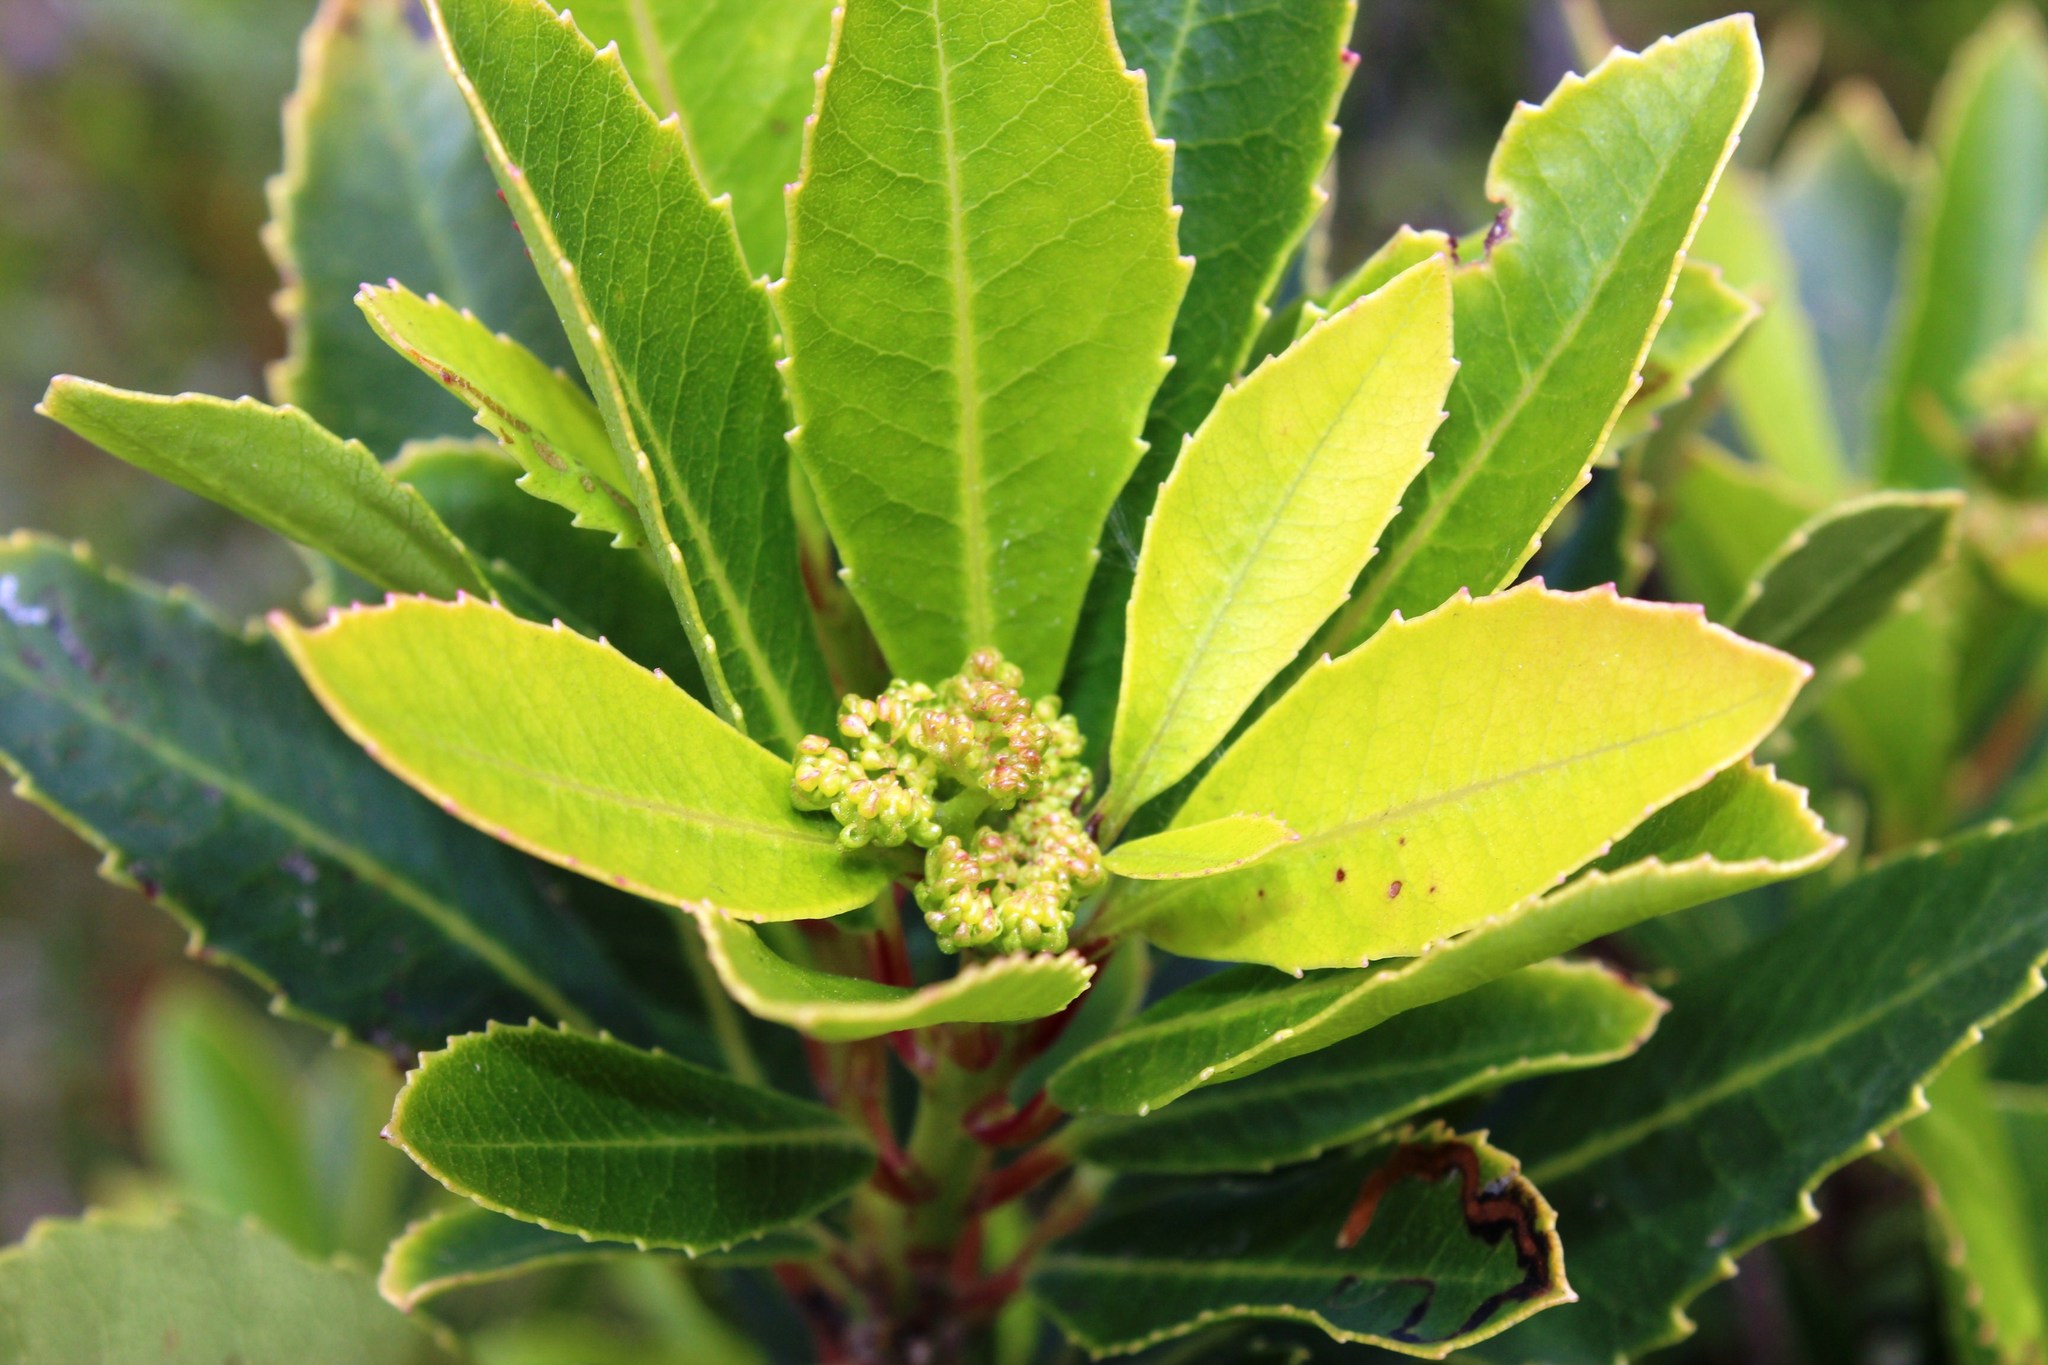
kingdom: Plantae
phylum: Tracheophyta
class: Magnoliopsida
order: Sapindales
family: Anacardiaceae
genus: Laurophyllus
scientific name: Laurophyllus capensis
